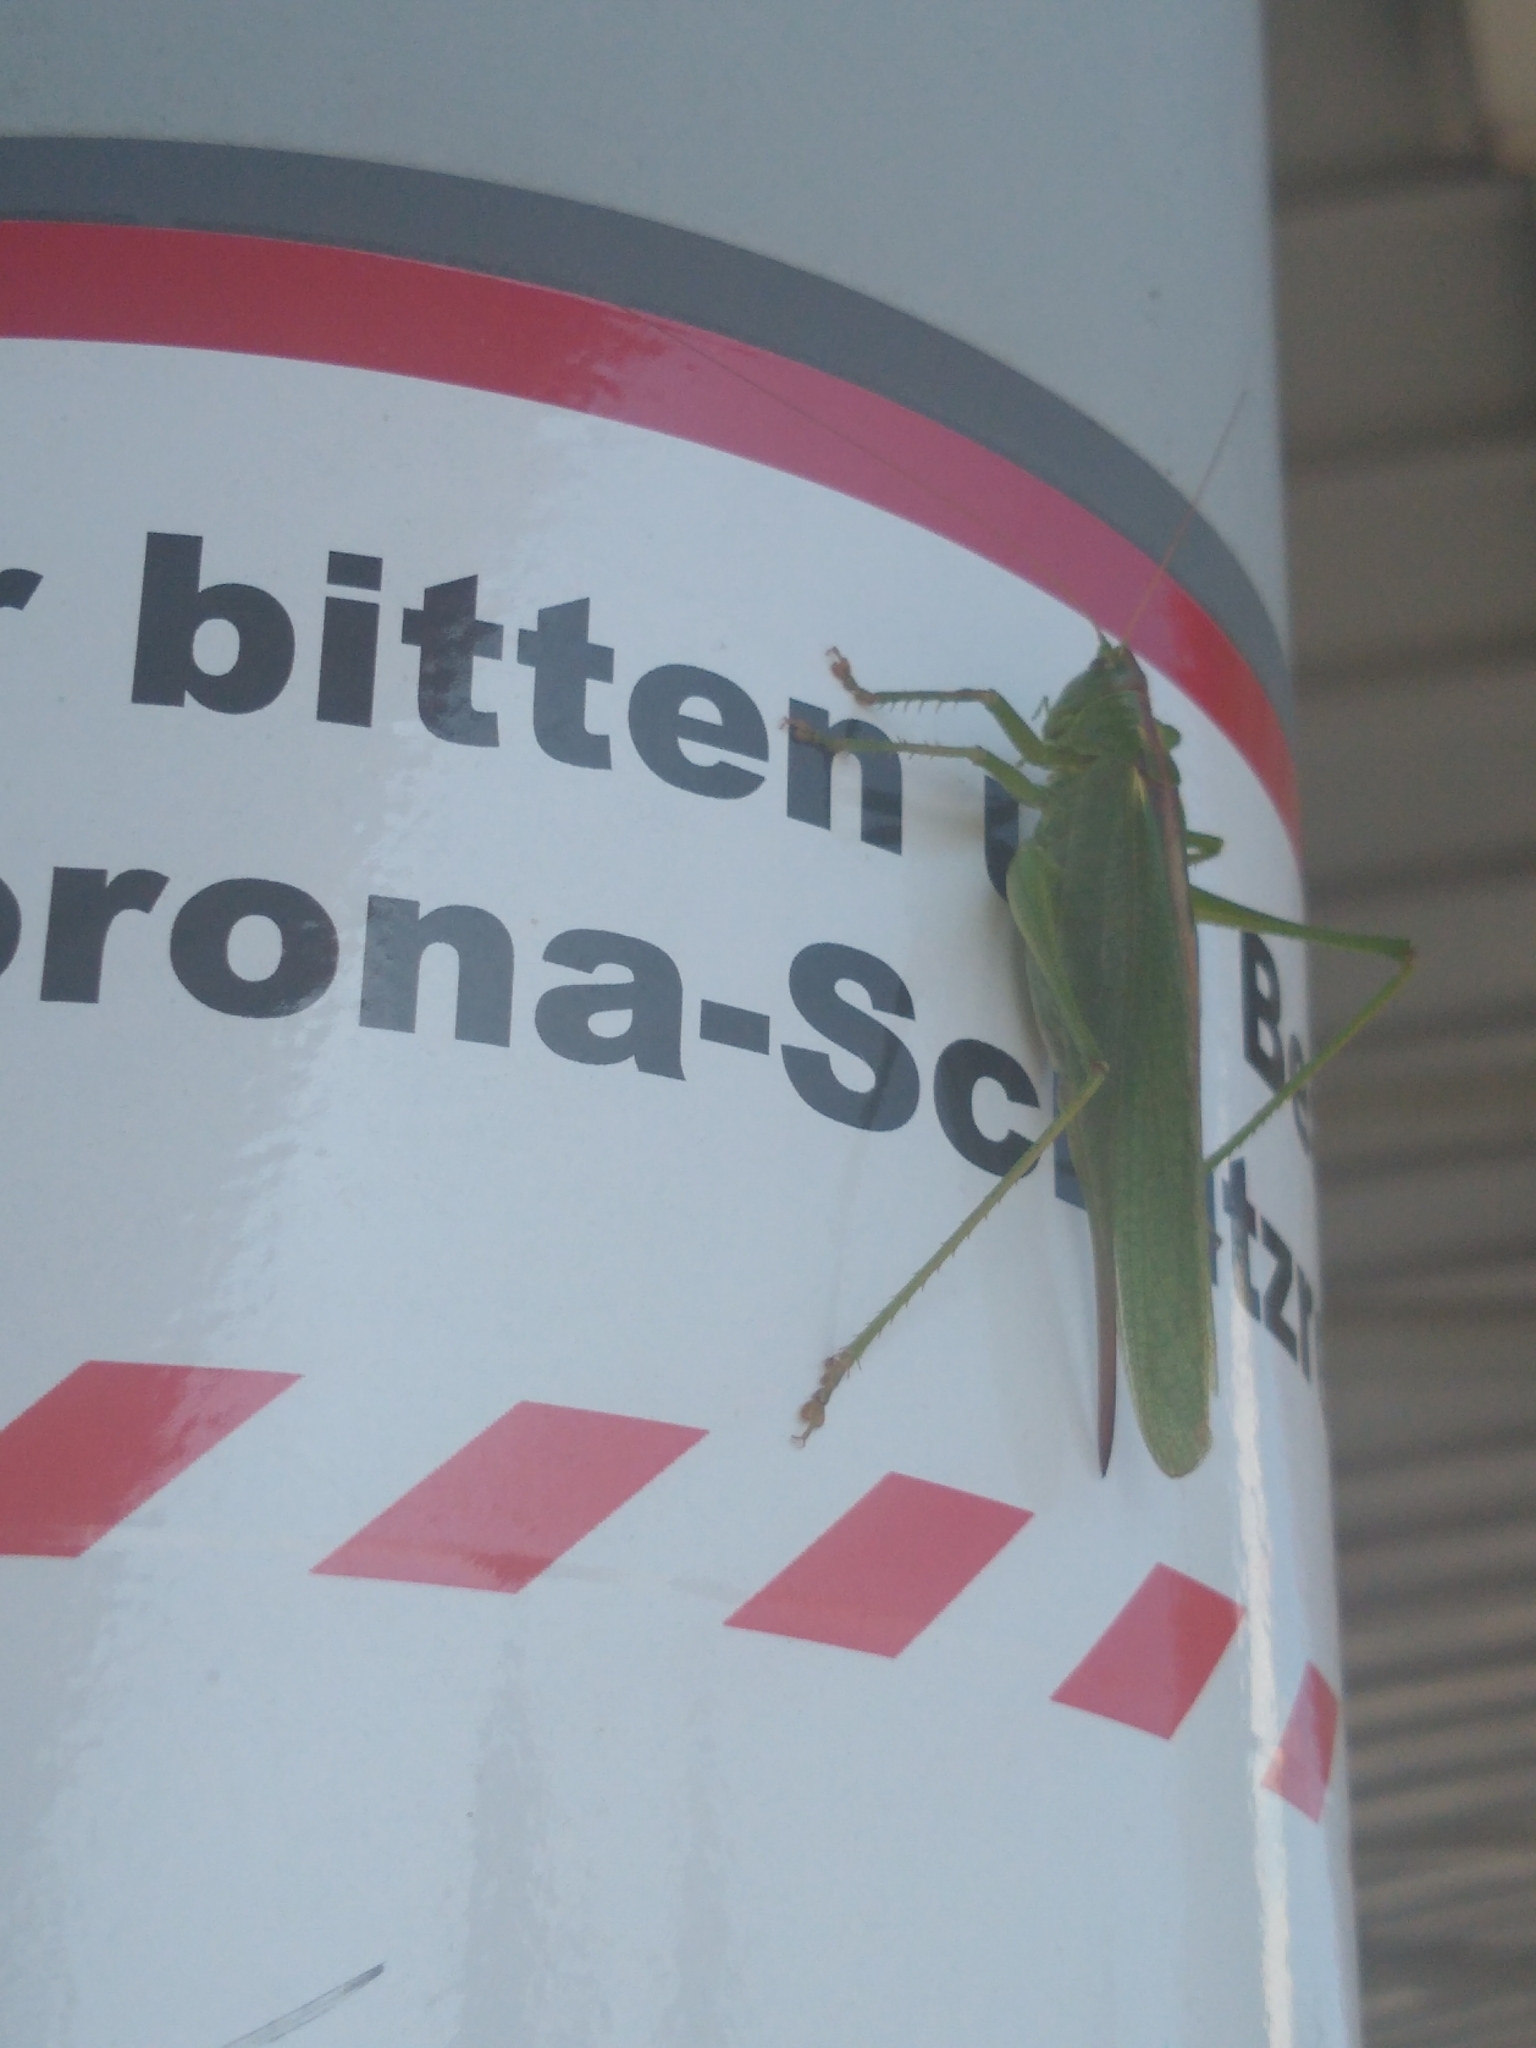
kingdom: Animalia
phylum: Arthropoda
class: Insecta
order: Orthoptera
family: Tettigoniidae
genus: Tettigonia
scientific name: Tettigonia viridissima
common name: Great green bush-cricket
